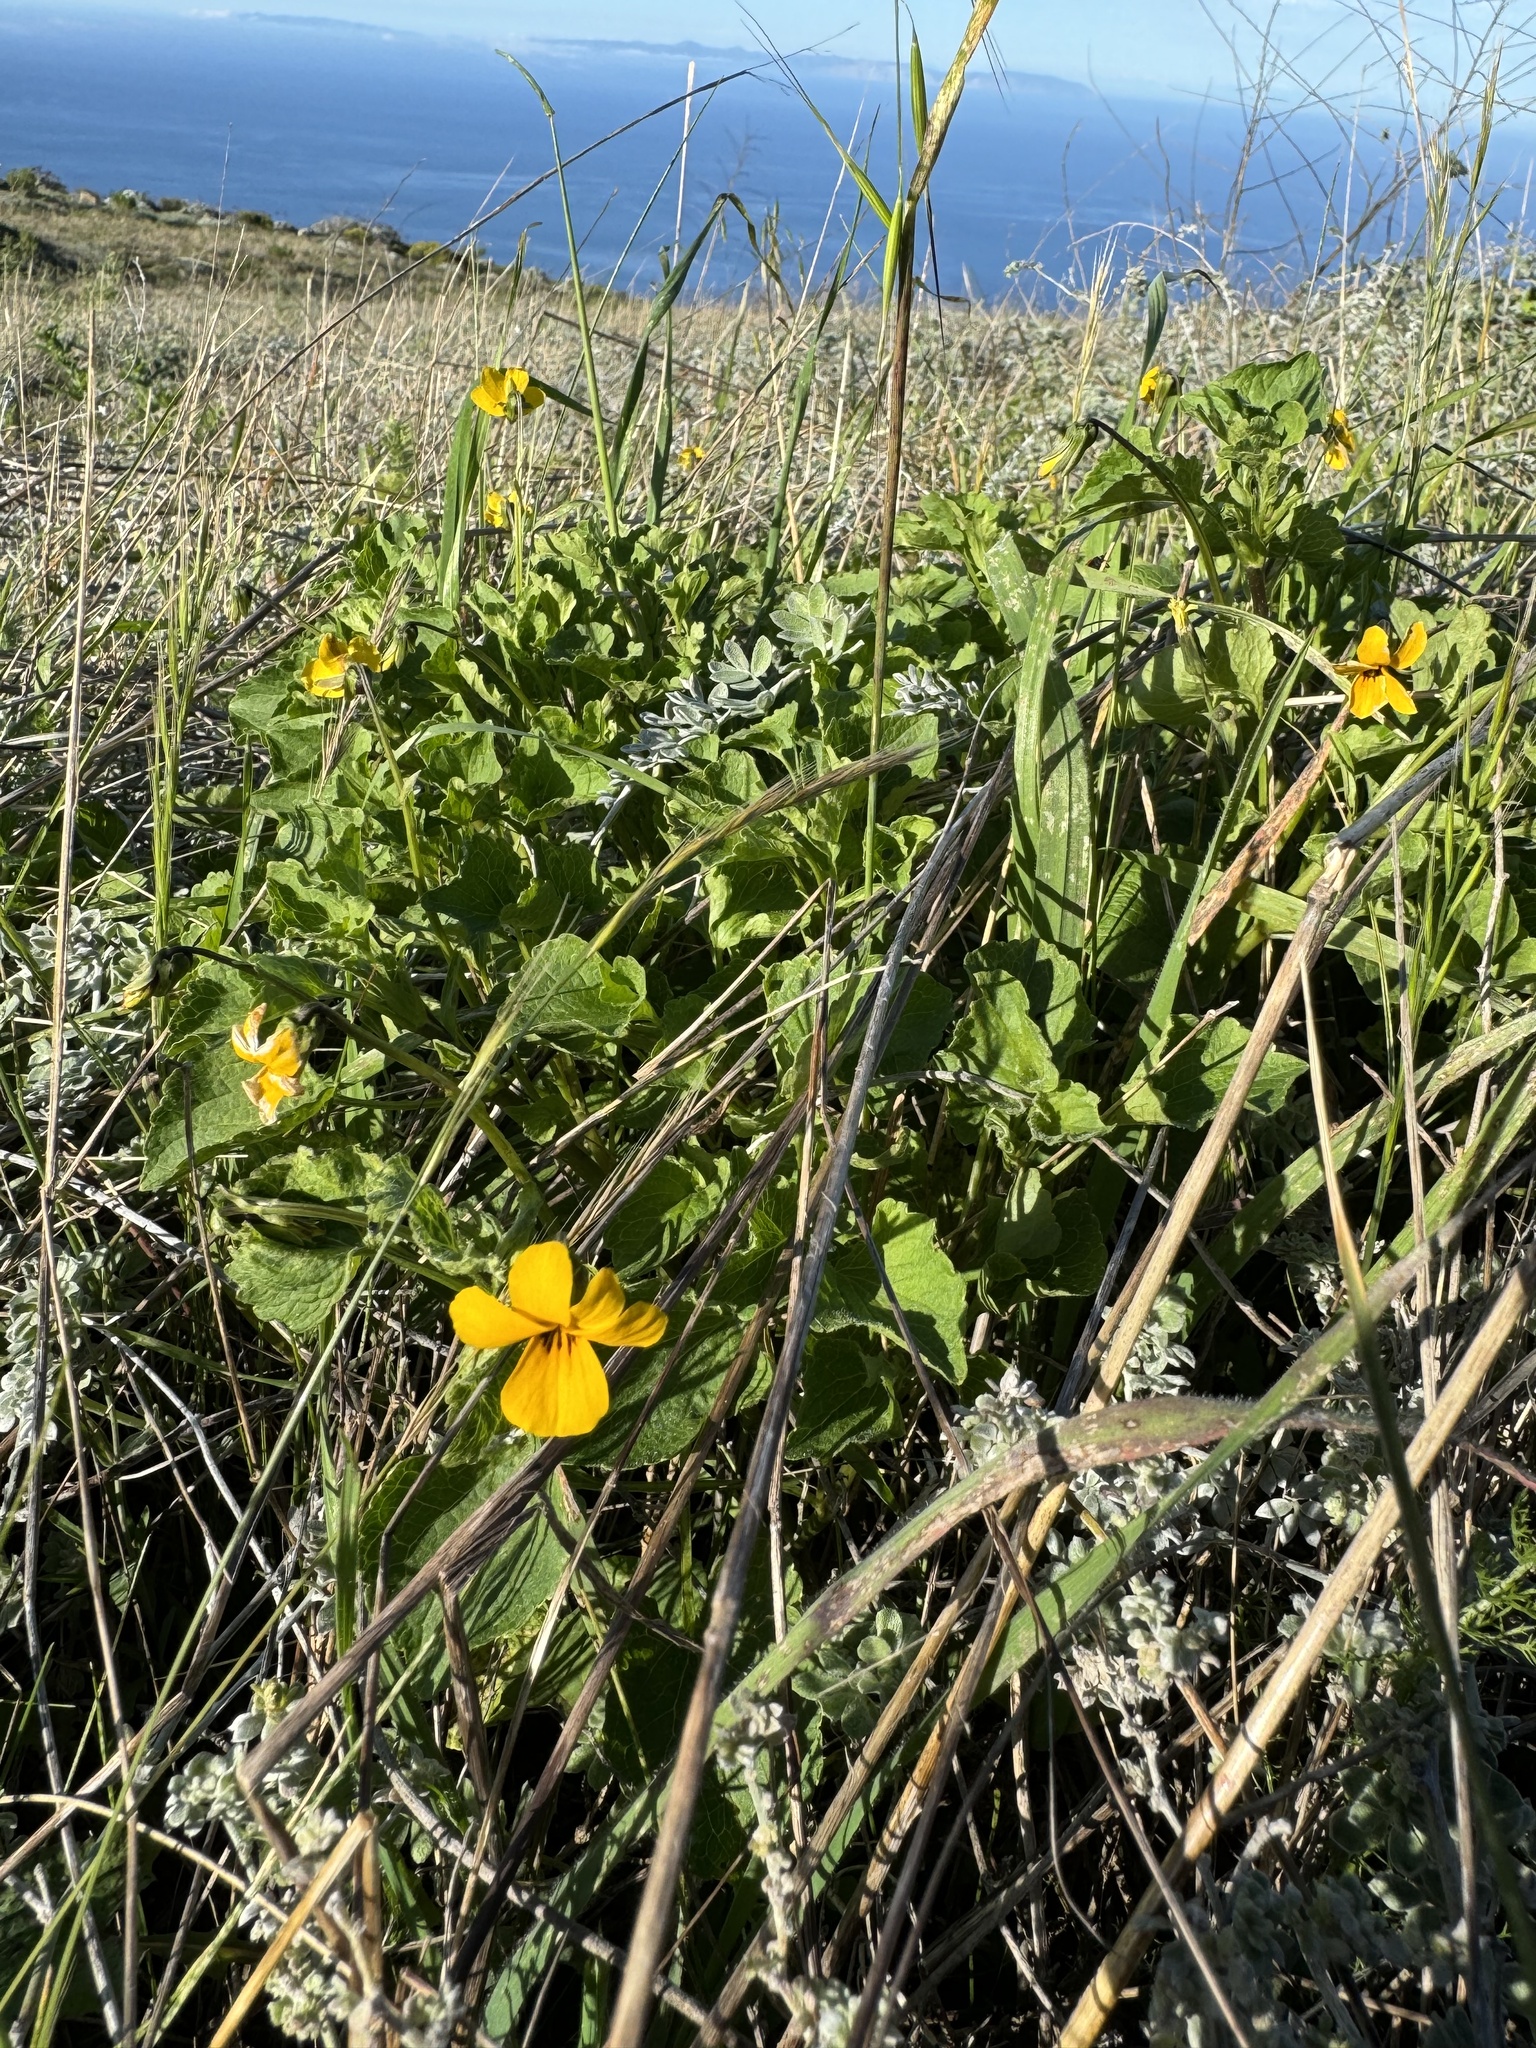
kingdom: Plantae
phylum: Tracheophyta
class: Magnoliopsida
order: Malpighiales
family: Violaceae
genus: Viola
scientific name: Viola pedunculata
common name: California golden violet
